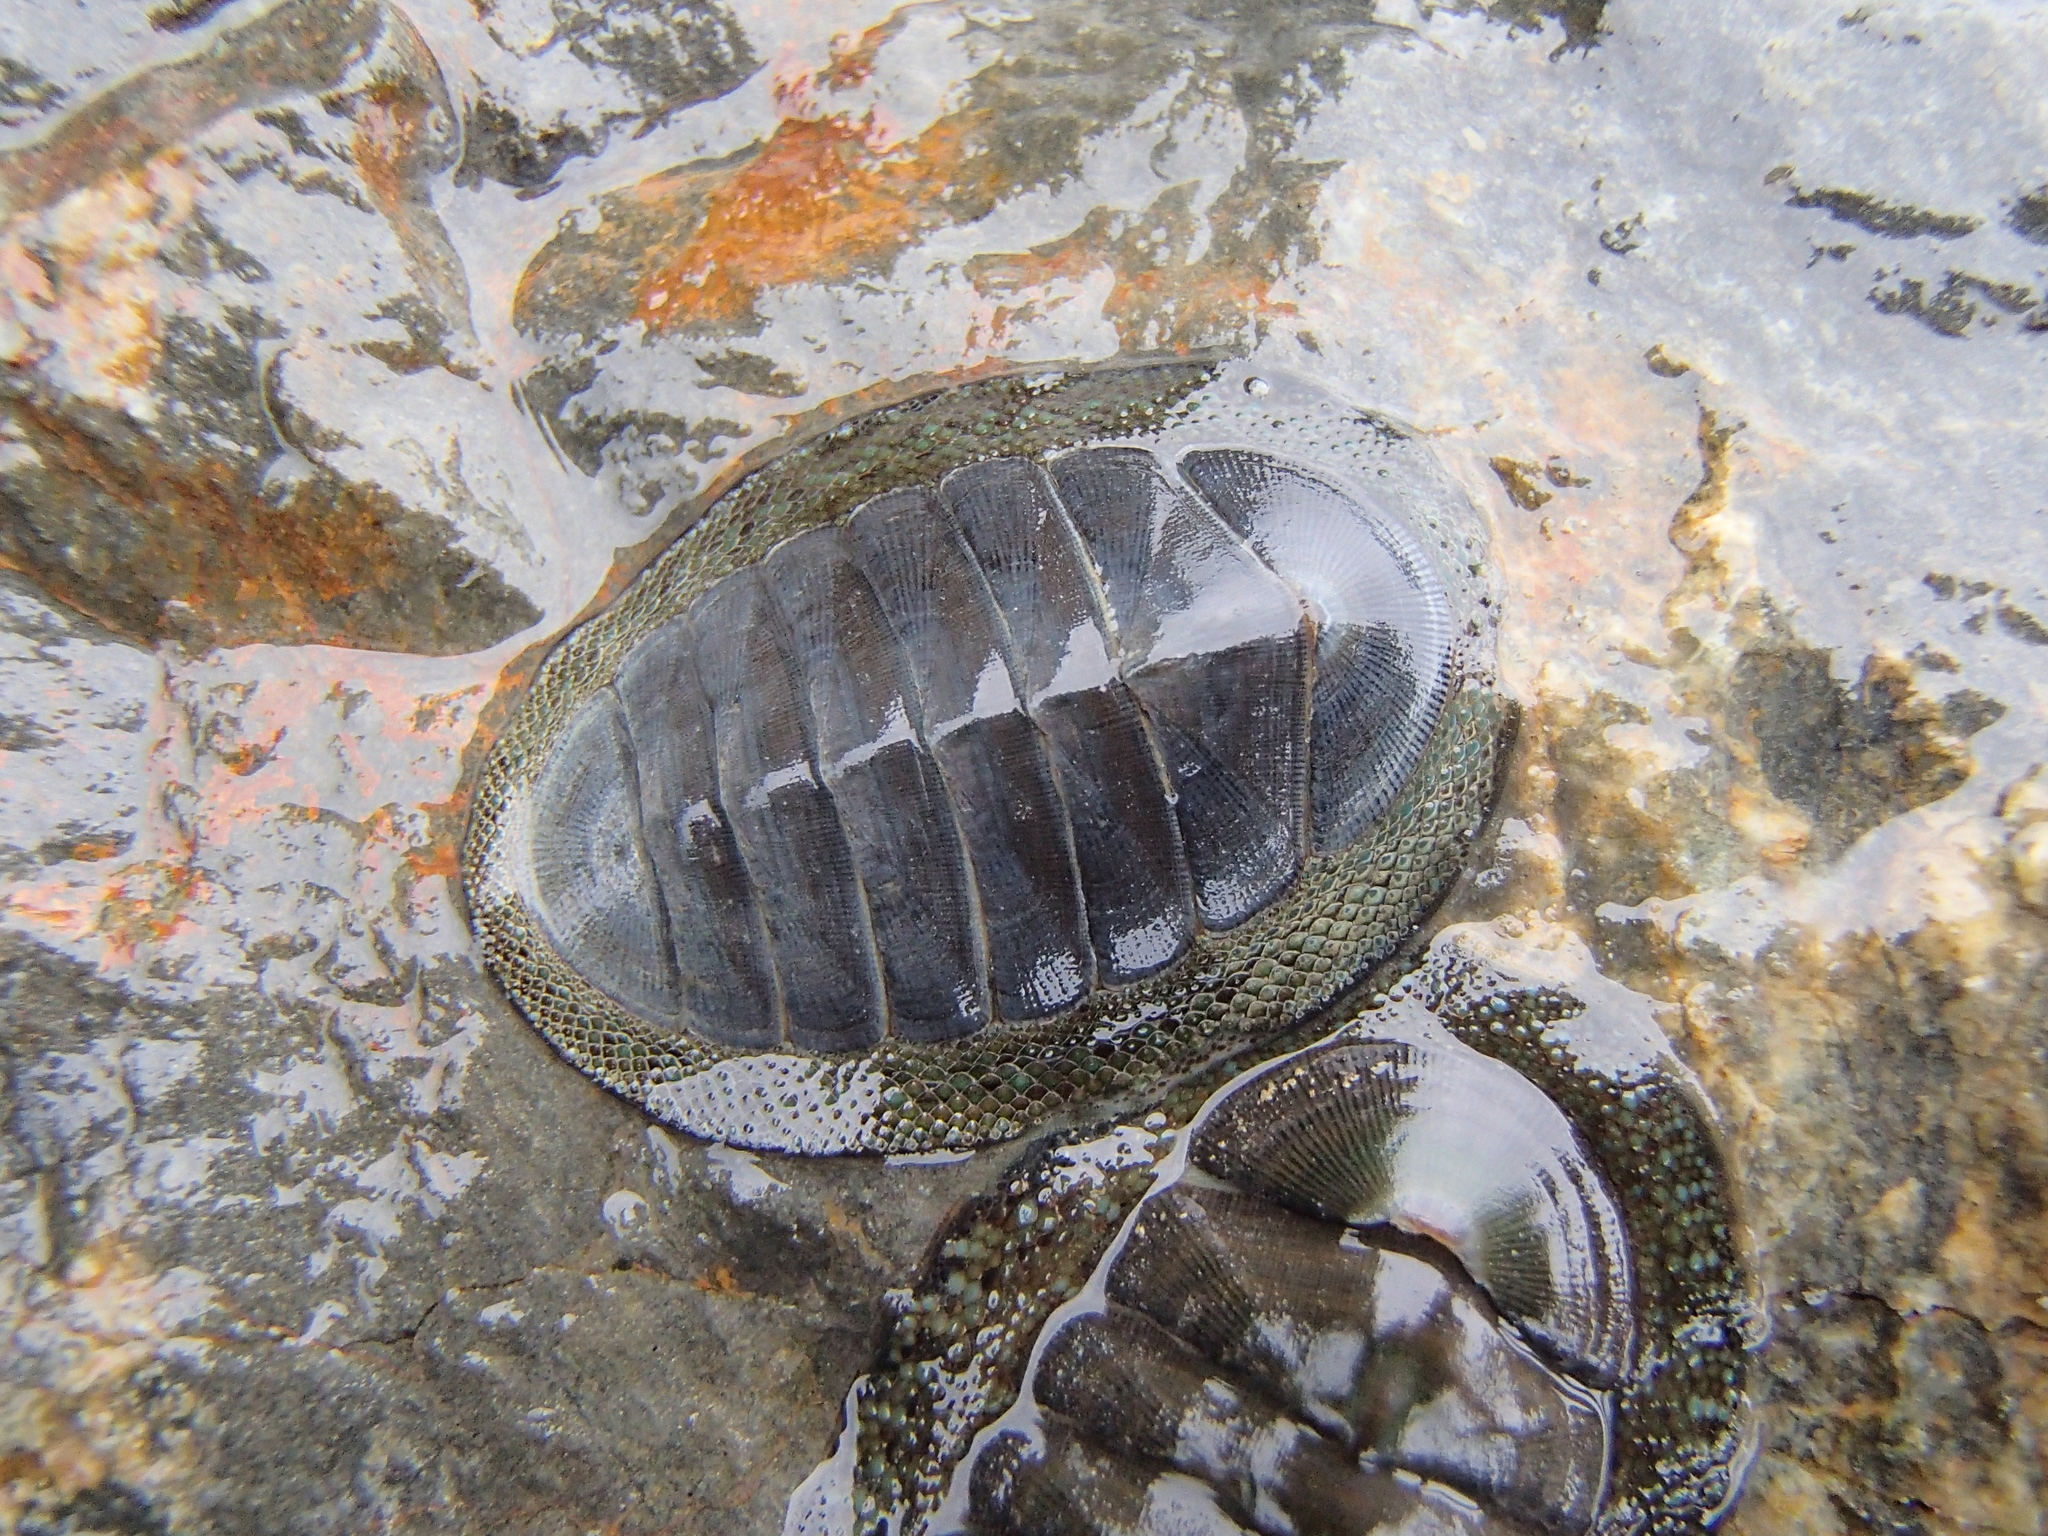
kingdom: Animalia
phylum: Mollusca
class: Polyplacophora
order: Chitonida
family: Chitonidae
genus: Chiton
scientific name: Chiton glaucus
